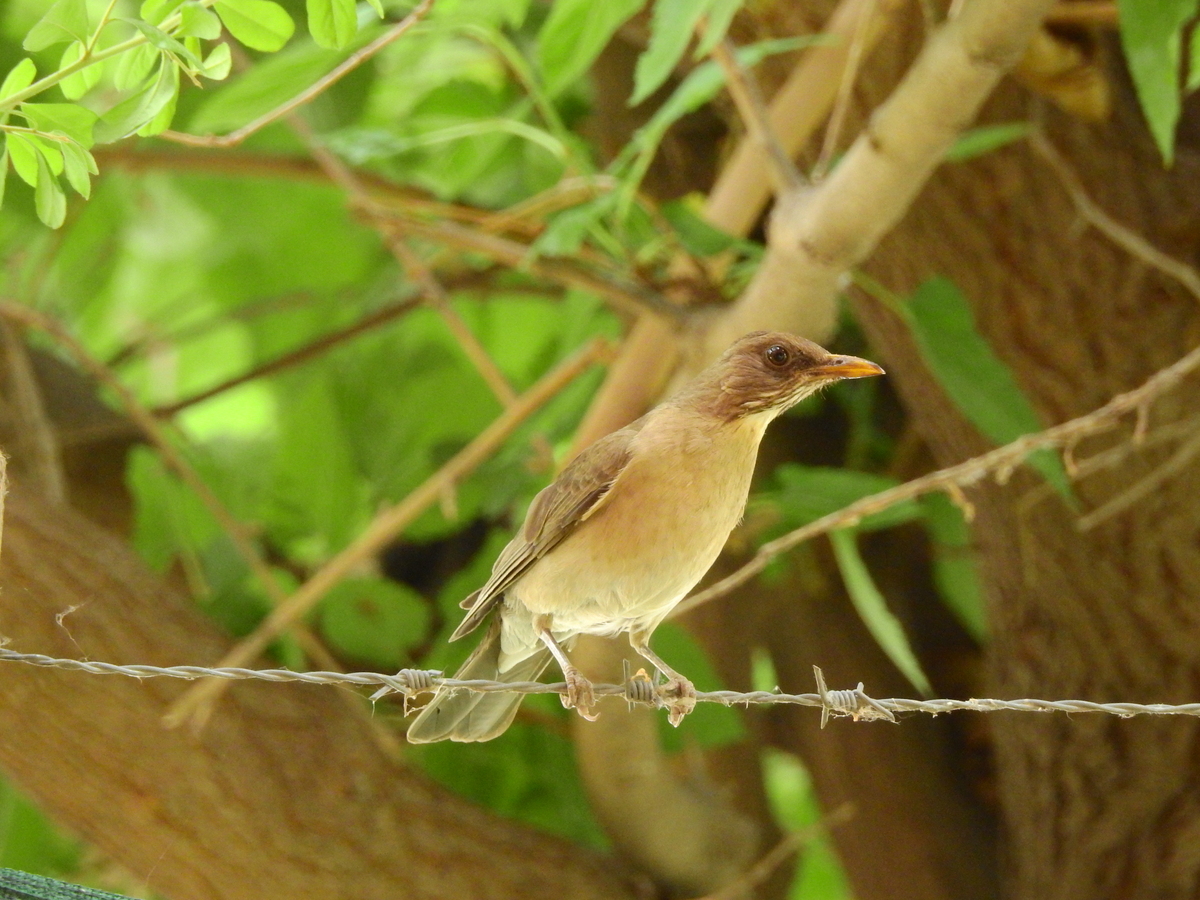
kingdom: Animalia
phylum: Chordata
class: Aves
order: Passeriformes
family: Turdidae
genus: Turdus
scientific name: Turdus amaurochalinus
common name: Creamy-bellied thrush
